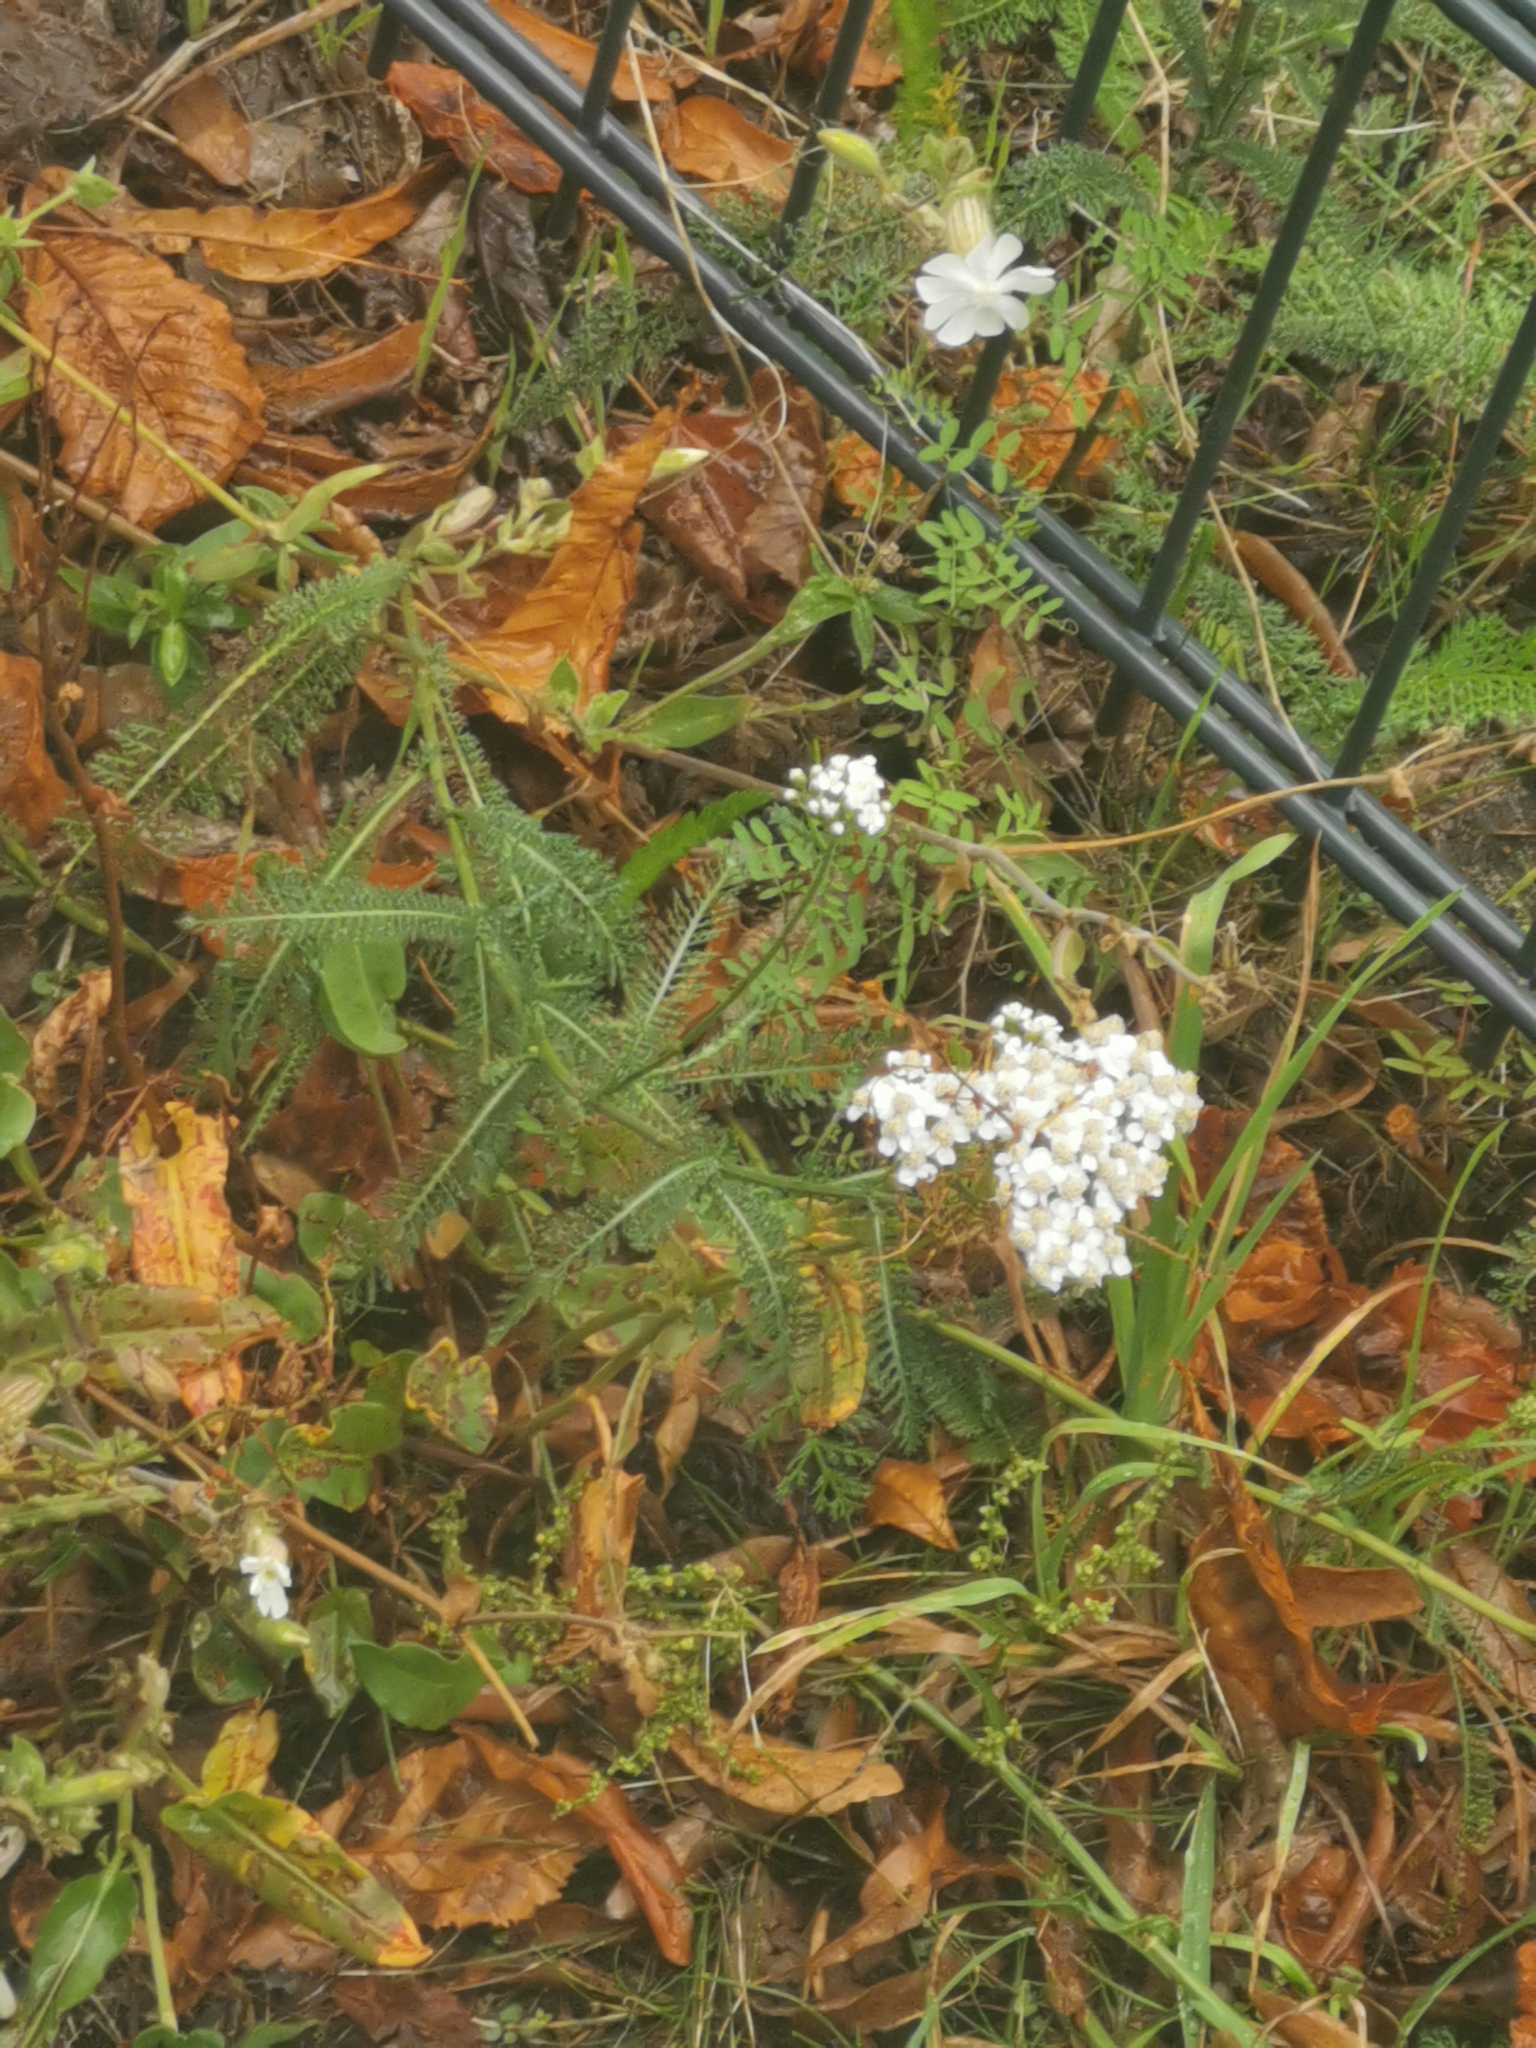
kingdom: Plantae
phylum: Tracheophyta
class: Magnoliopsida
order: Asterales
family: Asteraceae
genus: Achillea
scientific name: Achillea millefolium
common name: Yarrow
